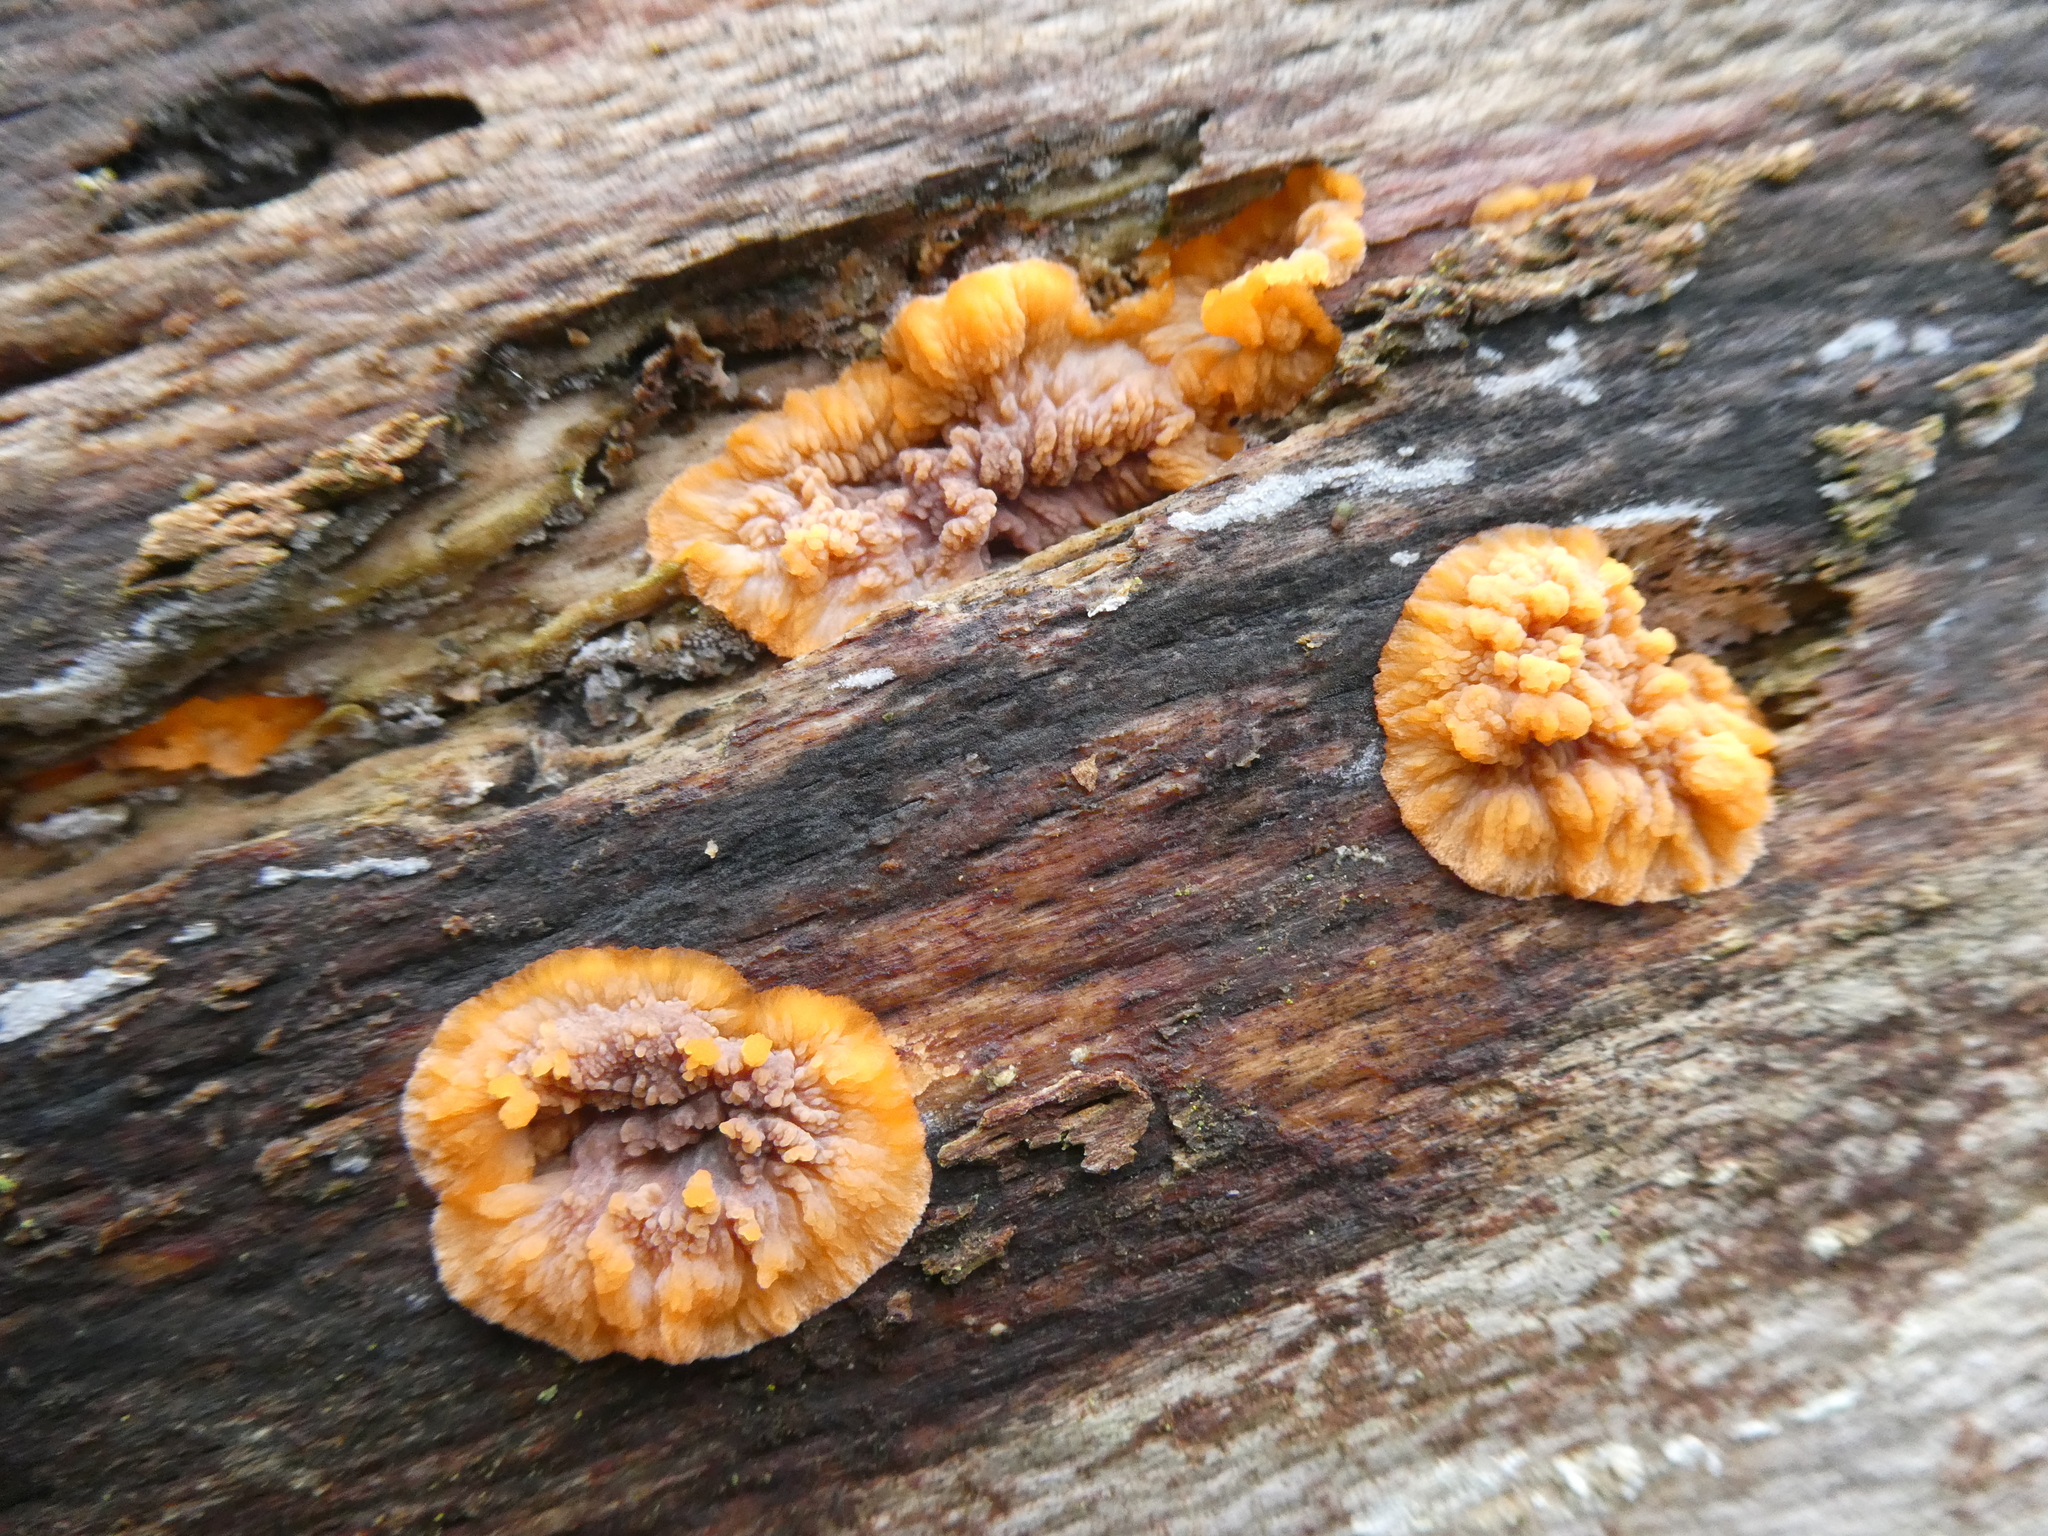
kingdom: Fungi
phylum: Basidiomycota
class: Agaricomycetes
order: Polyporales
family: Meruliaceae
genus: Phlebia
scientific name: Phlebia radiata
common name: Wrinkled crust
